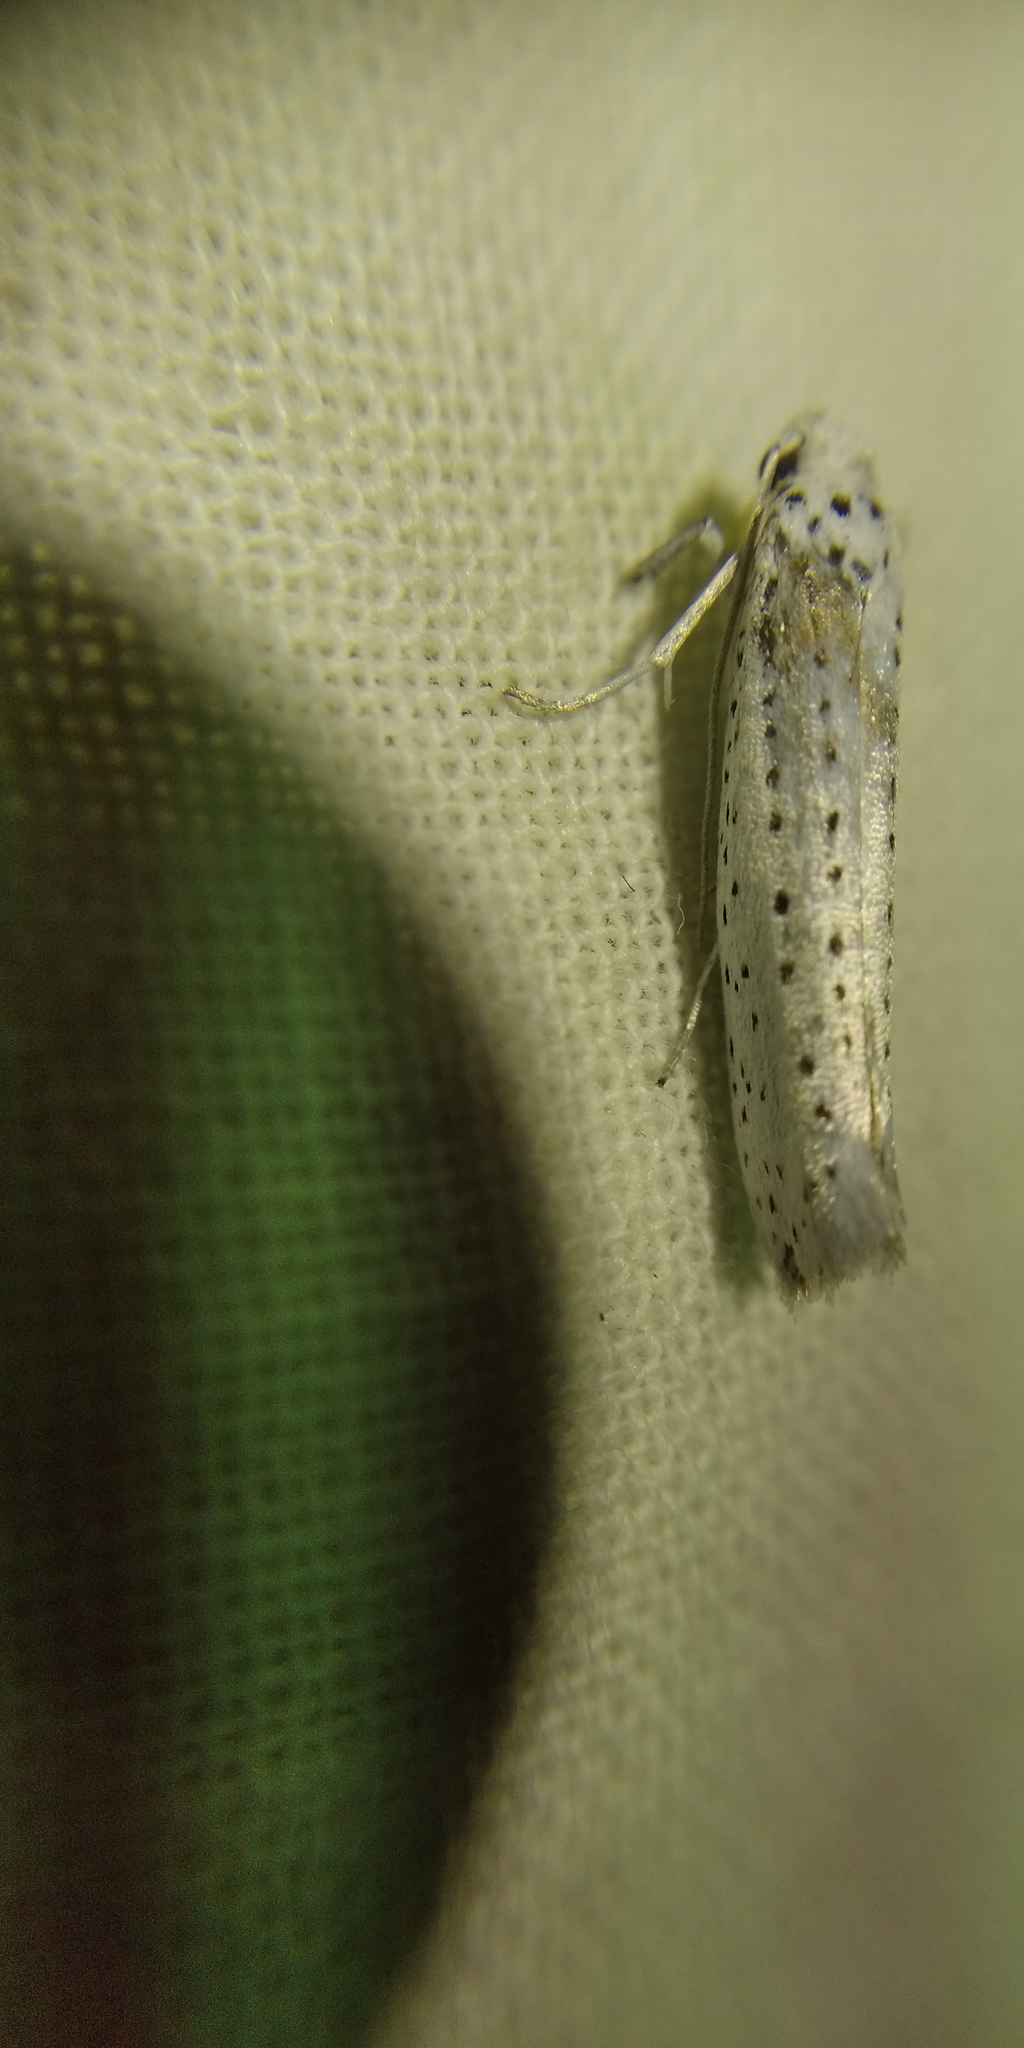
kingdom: Animalia
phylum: Arthropoda
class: Insecta
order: Lepidoptera
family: Yponomeutidae
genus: Yponomeuta
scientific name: Yponomeuta evonymella
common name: Bird-cherry ermine
